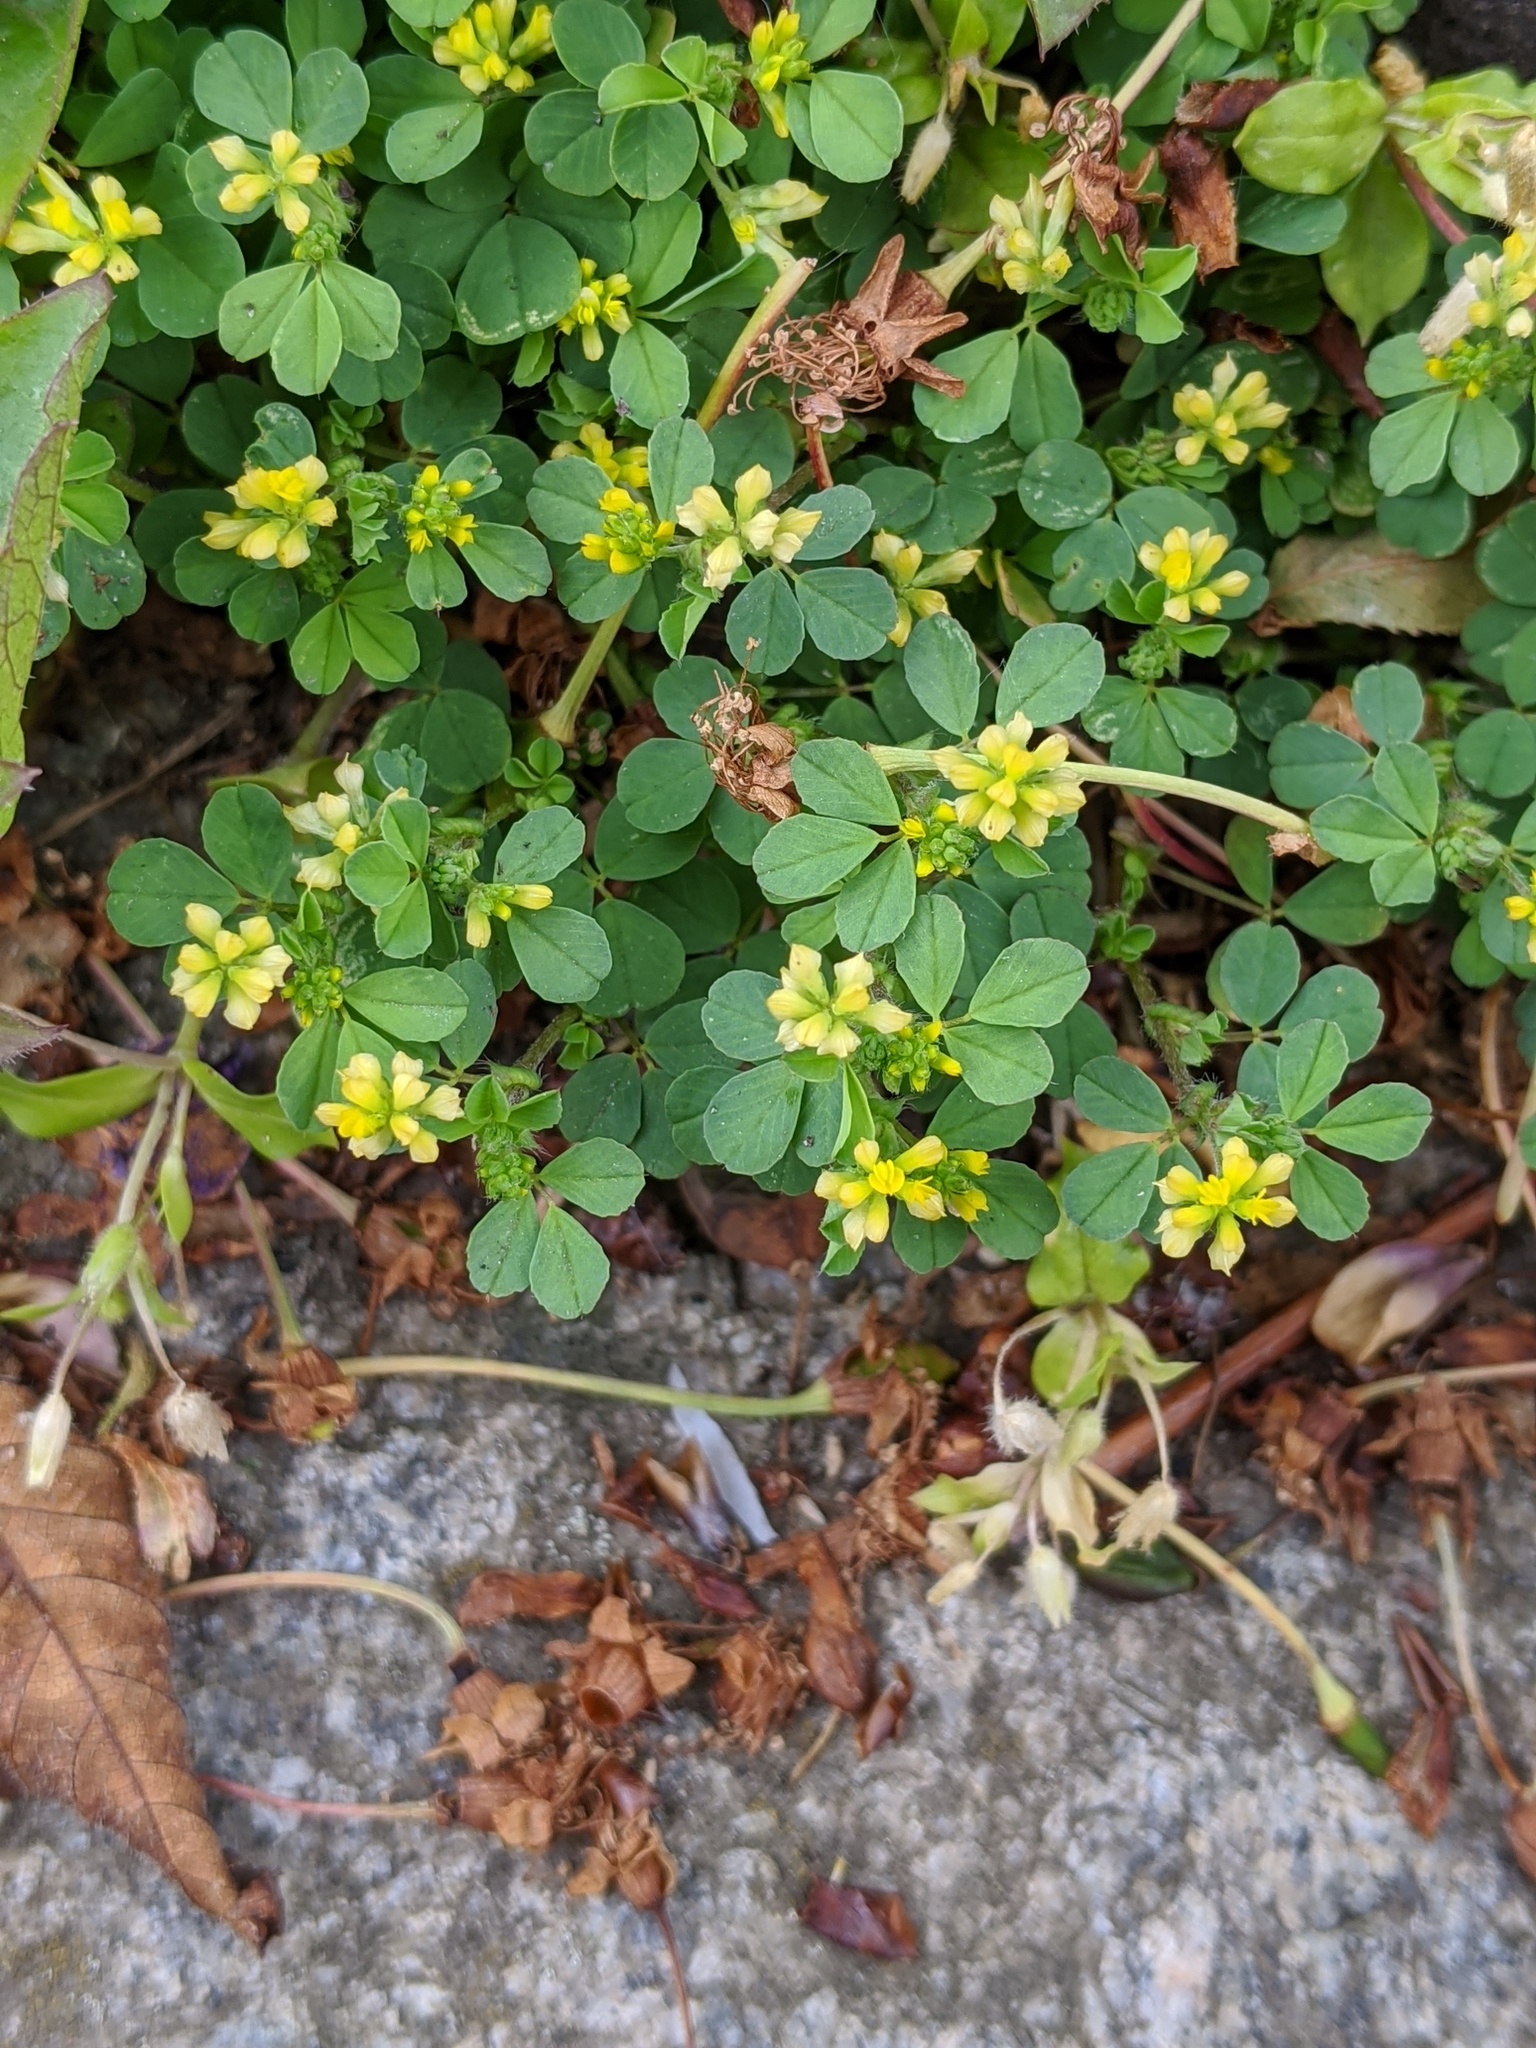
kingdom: Plantae
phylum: Tracheophyta
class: Magnoliopsida
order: Fabales
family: Fabaceae
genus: Trifolium
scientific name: Trifolium dubium
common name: Suckling clover
